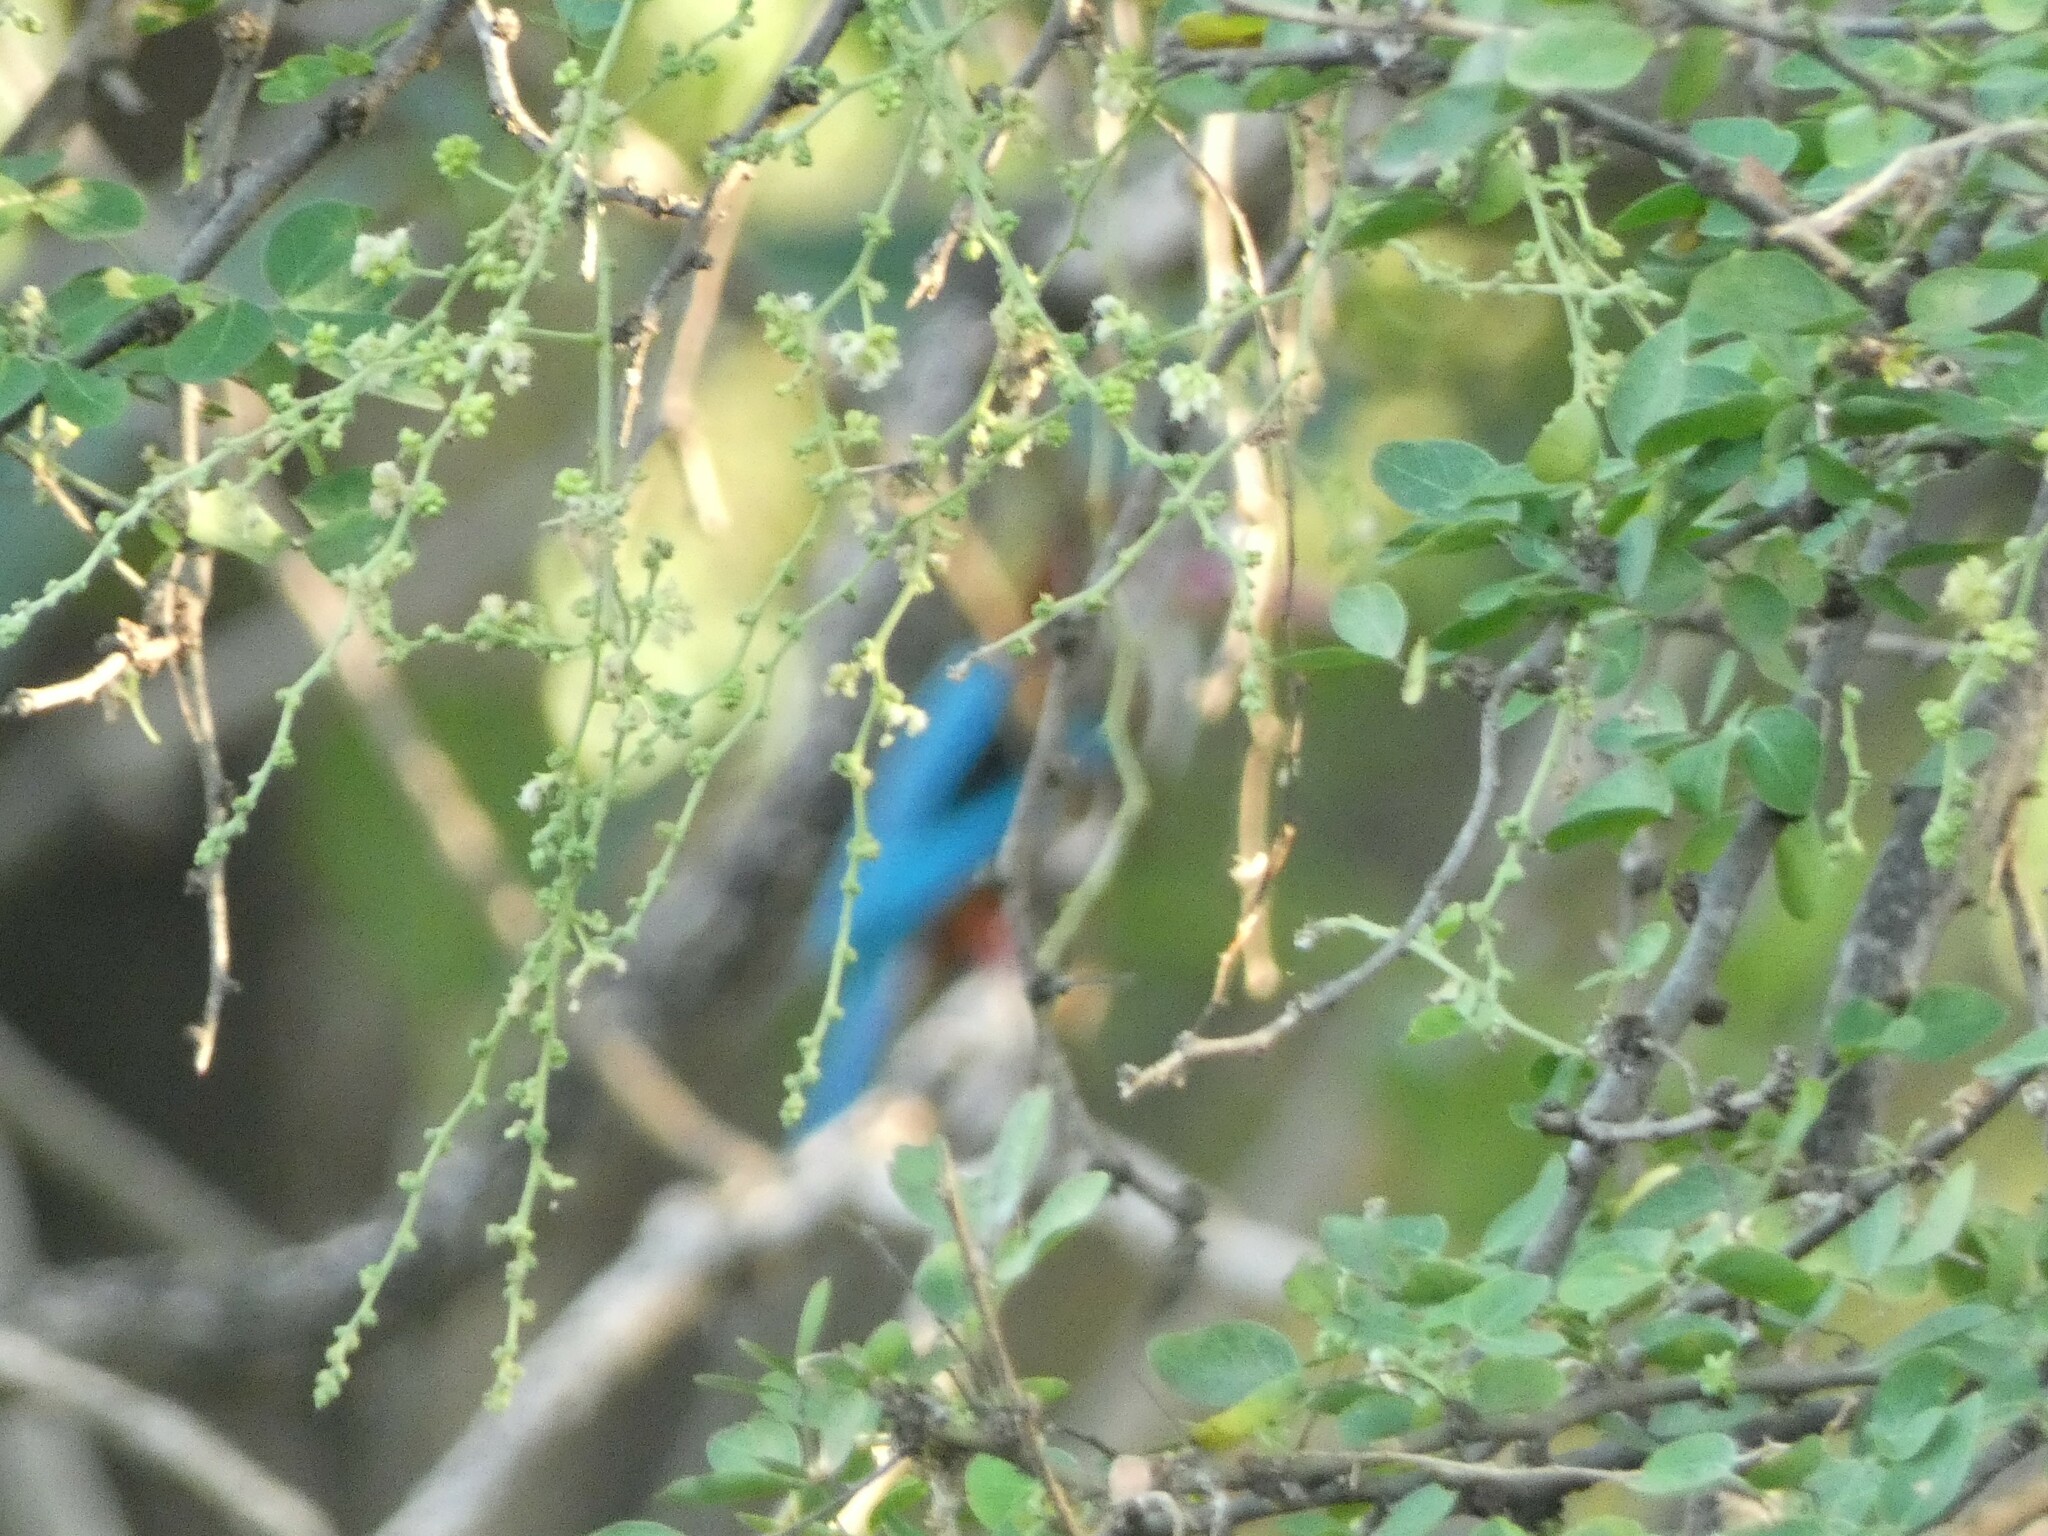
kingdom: Animalia
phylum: Chordata
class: Aves
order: Coraciiformes
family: Alcedinidae
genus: Halcyon
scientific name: Halcyon smyrnensis
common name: White-throated kingfisher
